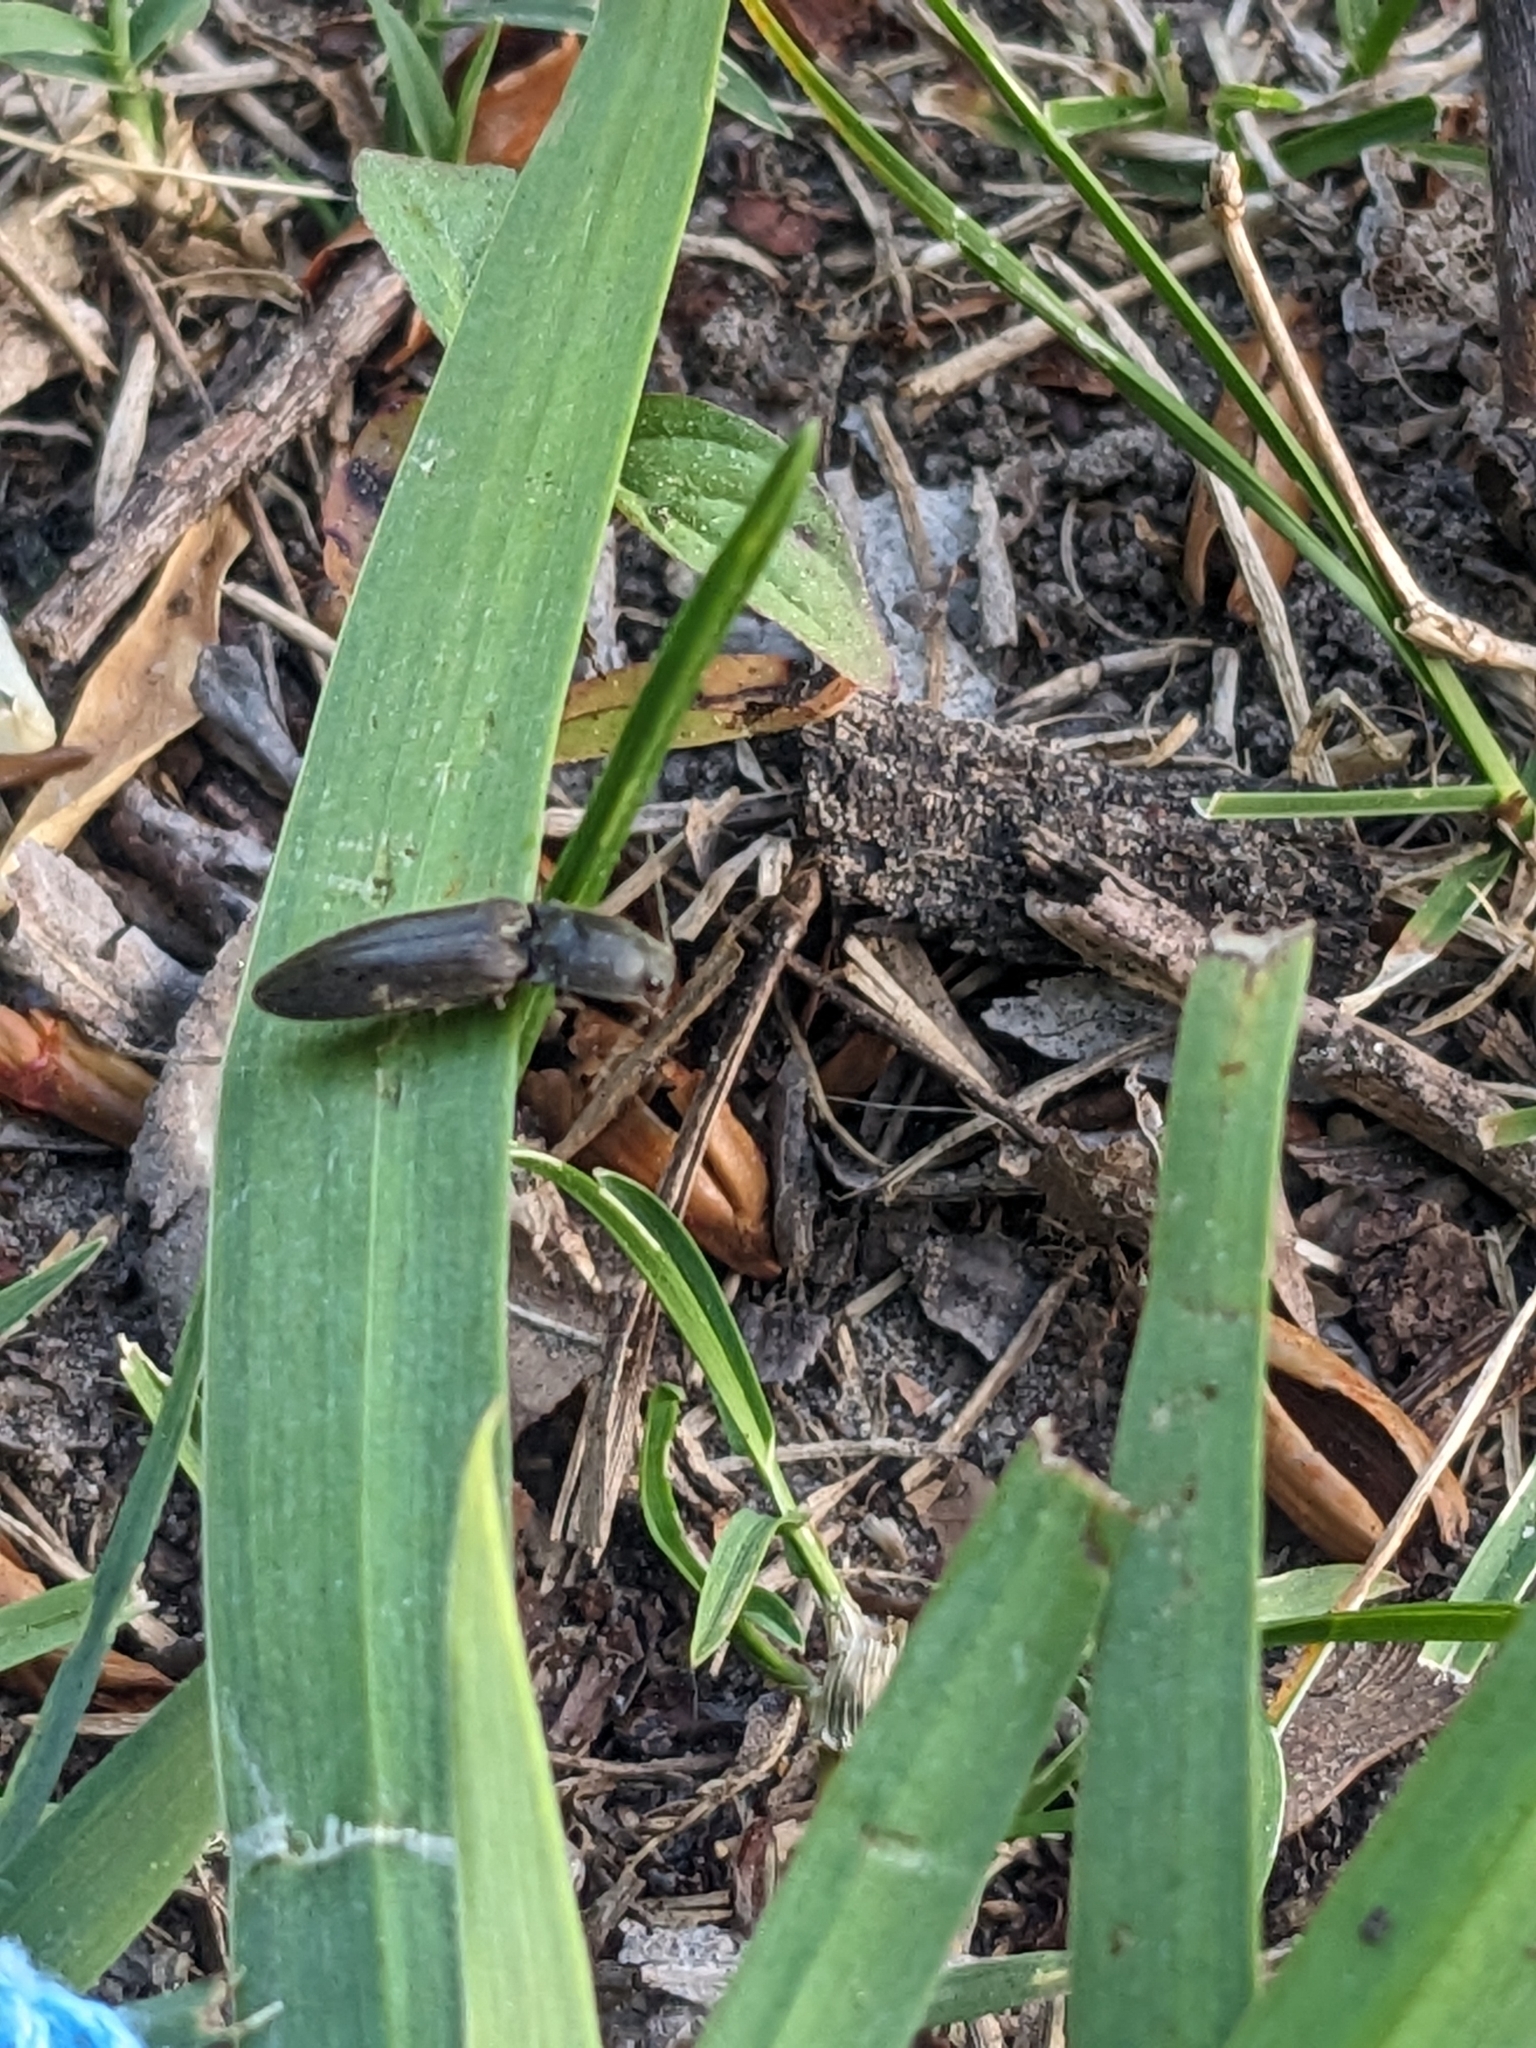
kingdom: Animalia
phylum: Arthropoda
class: Insecta
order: Coleoptera
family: Elateridae
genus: Athous
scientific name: Athous haemorrhoidalis
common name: Red-brown click beetle
